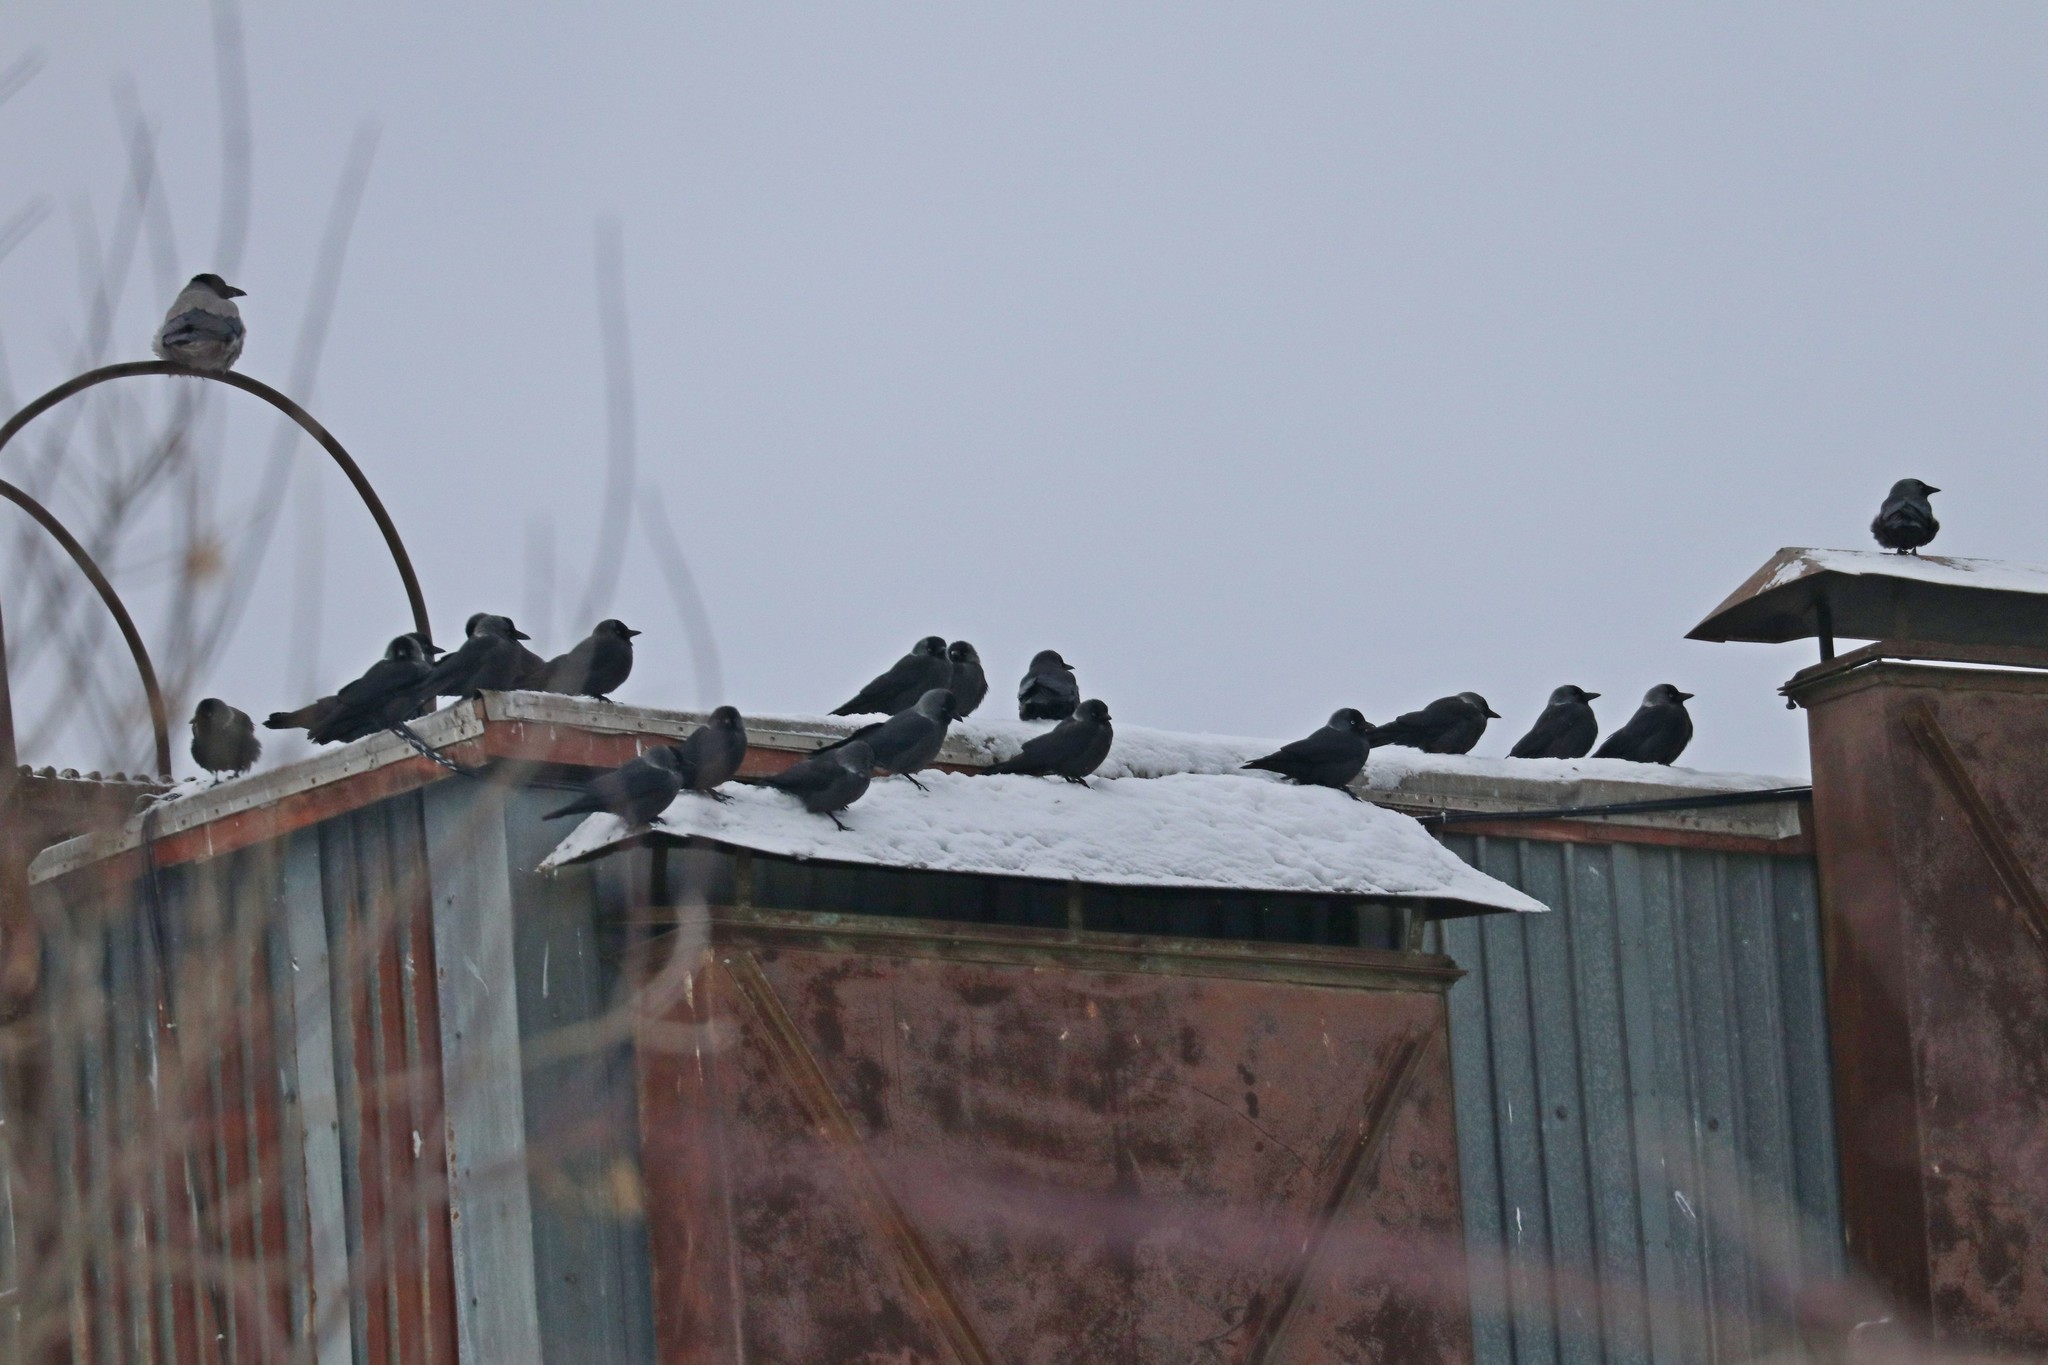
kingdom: Animalia
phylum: Chordata
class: Aves
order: Passeriformes
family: Corvidae
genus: Coloeus
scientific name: Coloeus monedula
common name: Western jackdaw
